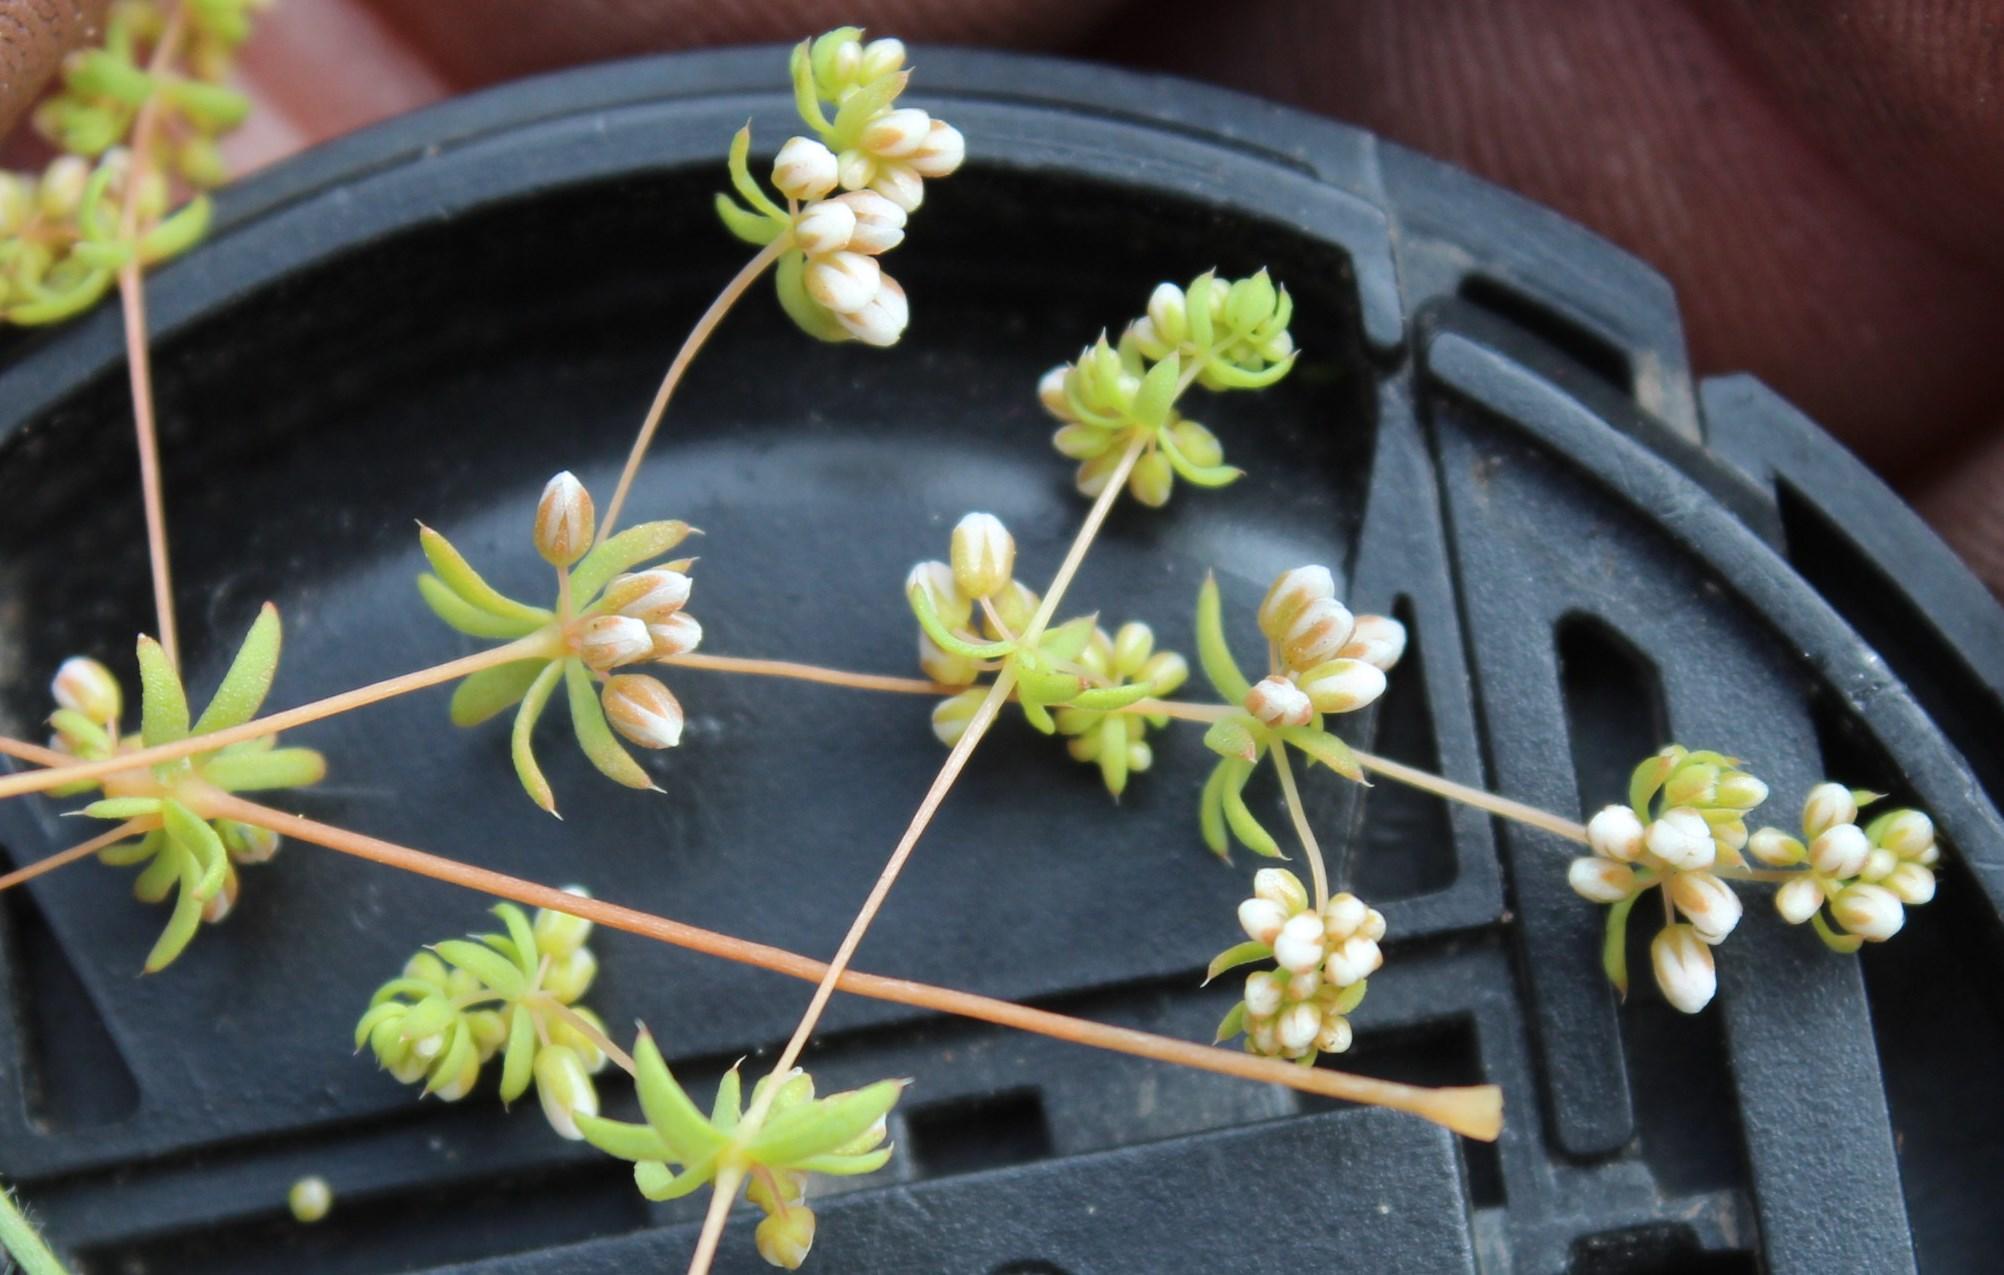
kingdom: Plantae
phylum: Tracheophyta
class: Magnoliopsida
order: Caryophyllales
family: Molluginaceae
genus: Adenogramma
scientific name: Adenogramma glomerata
